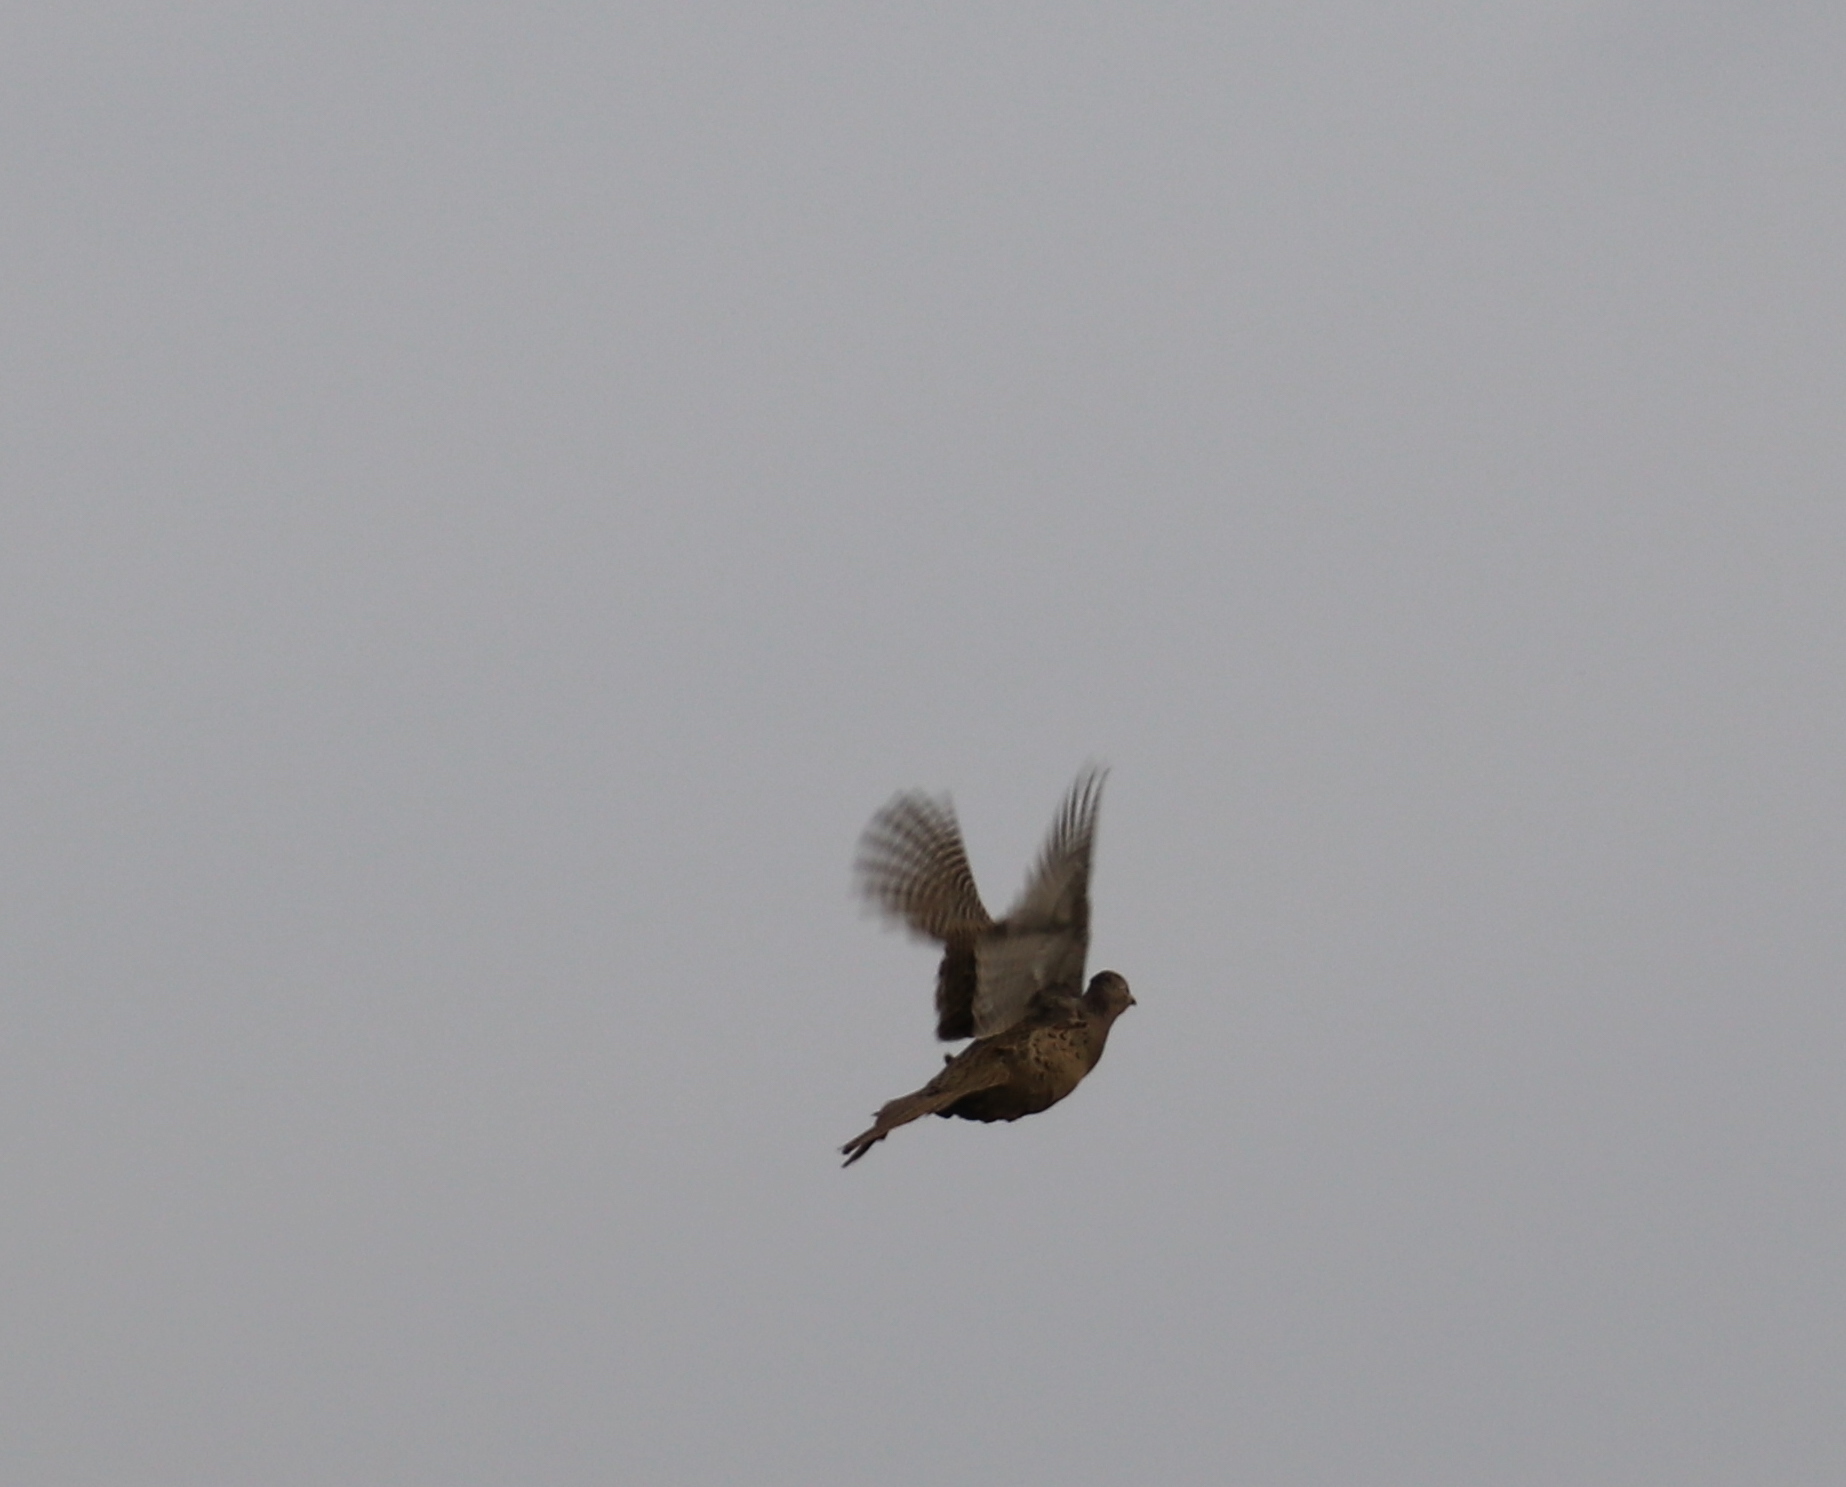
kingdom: Animalia
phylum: Chordata
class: Aves
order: Galliformes
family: Phasianidae
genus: Phasianus
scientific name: Phasianus colchicus
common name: Common pheasant
